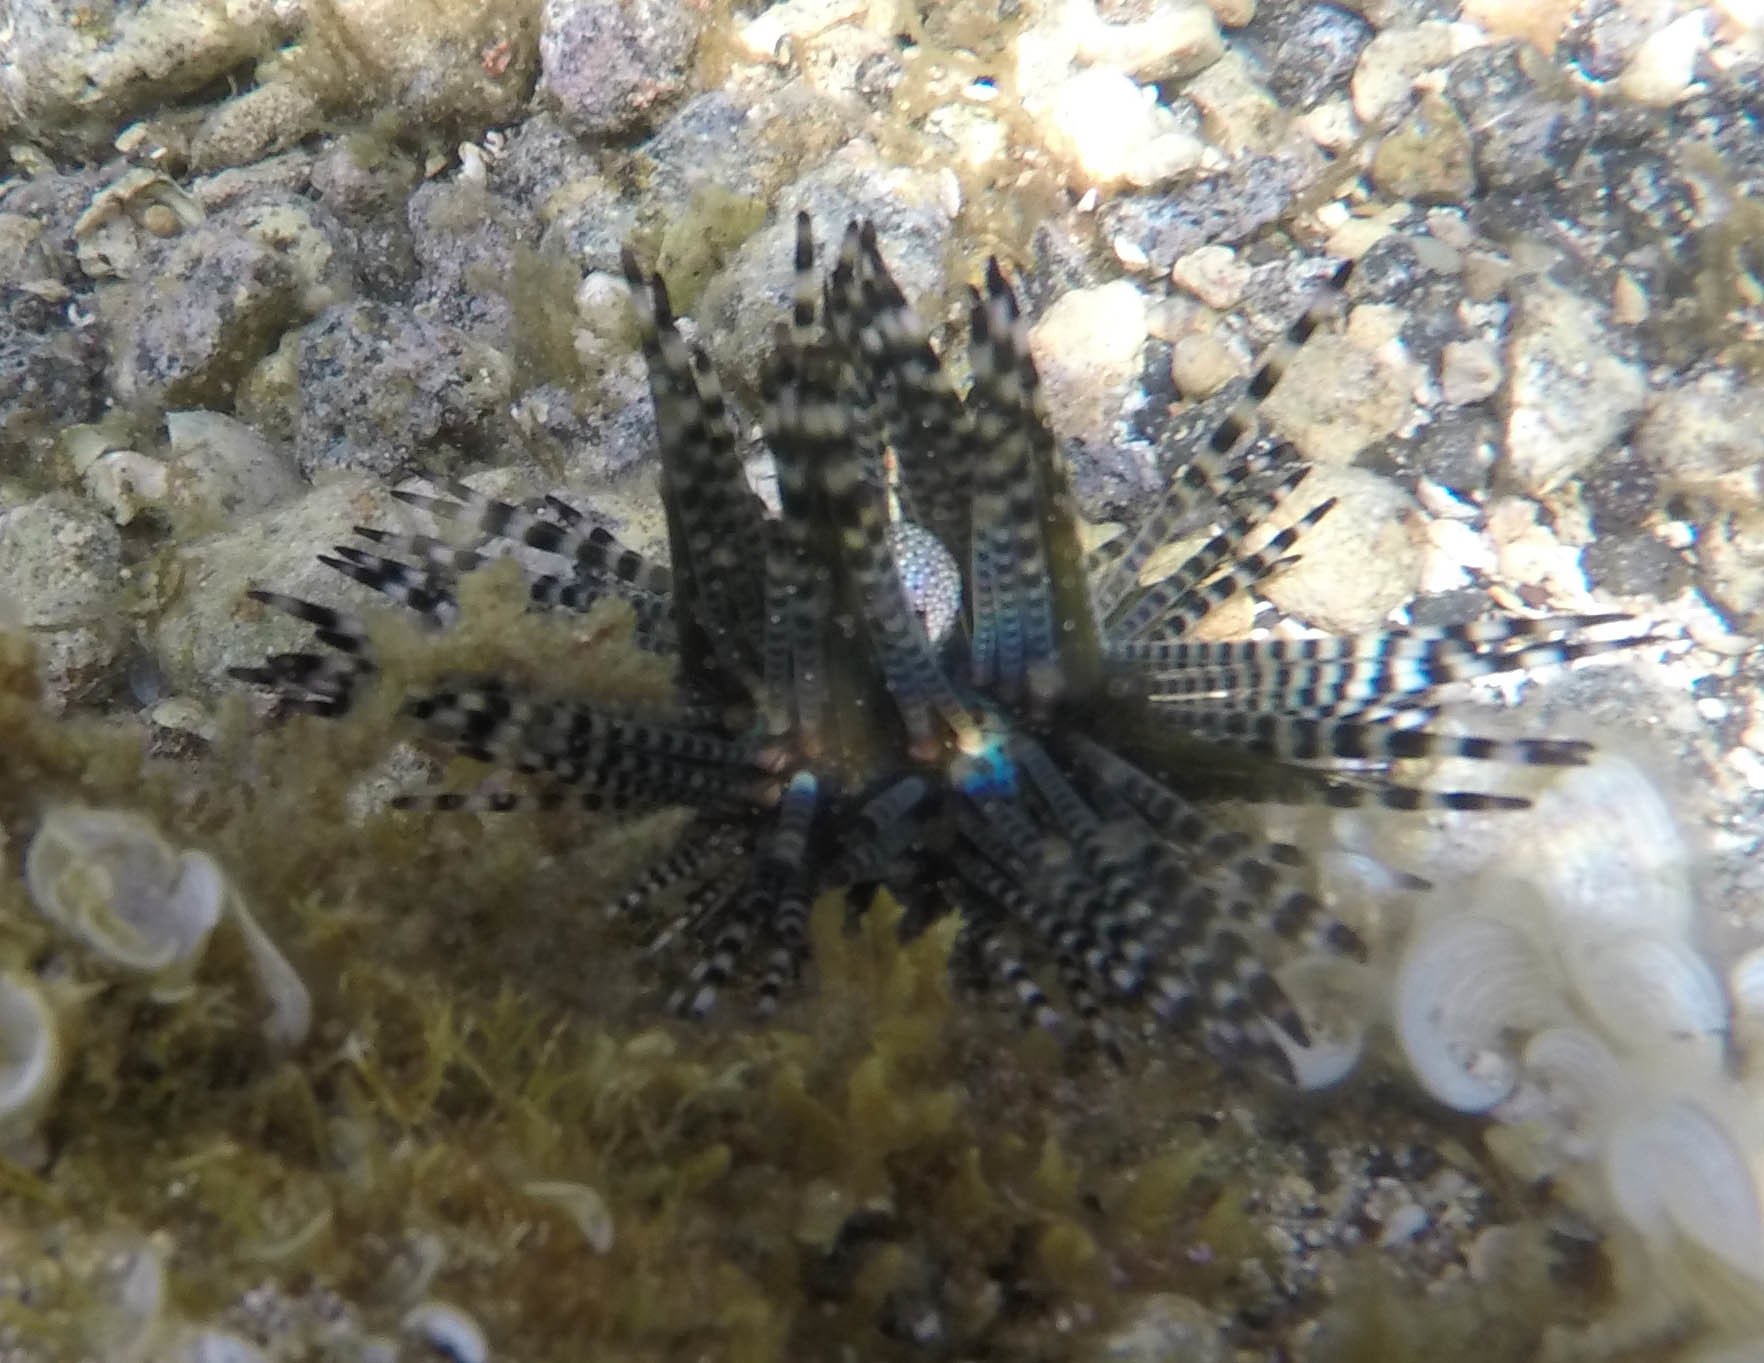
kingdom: Animalia
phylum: Echinodermata
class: Echinoidea
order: Diadematoida
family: Diadematidae
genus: Echinothrix
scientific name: Echinothrix calamaris
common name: Banded sea urchin
